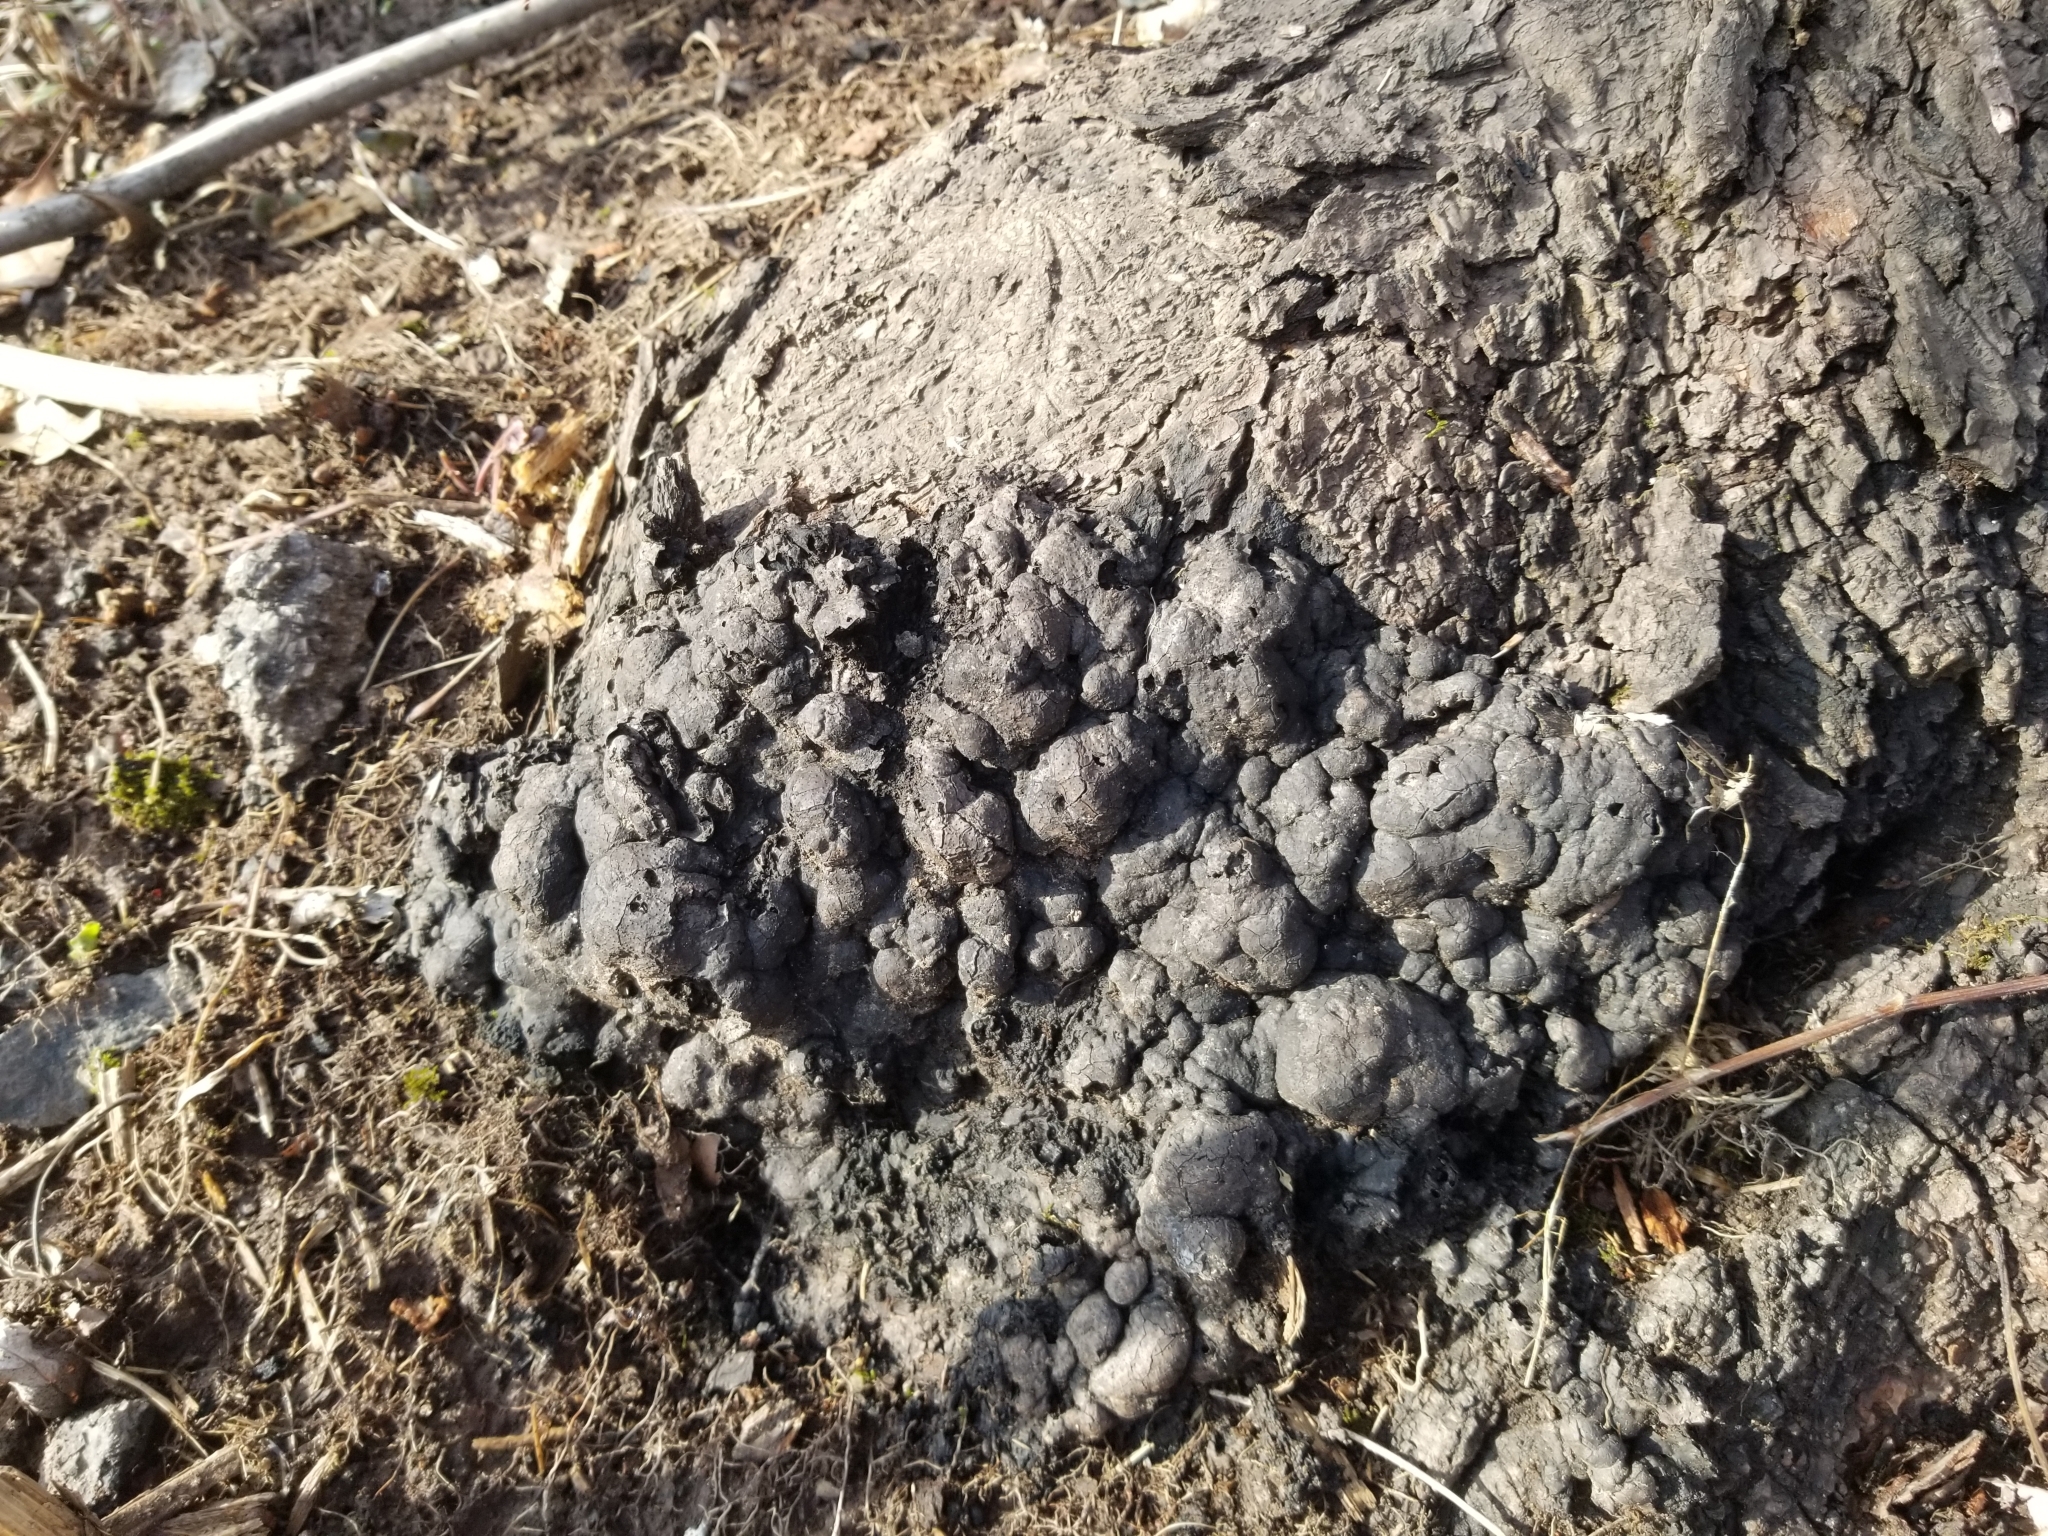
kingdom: Fungi
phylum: Ascomycota
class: Sordariomycetes
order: Xylariales
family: Xylariaceae
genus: Kretzschmaria
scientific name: Kretzschmaria deusta
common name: Brittle cinder
